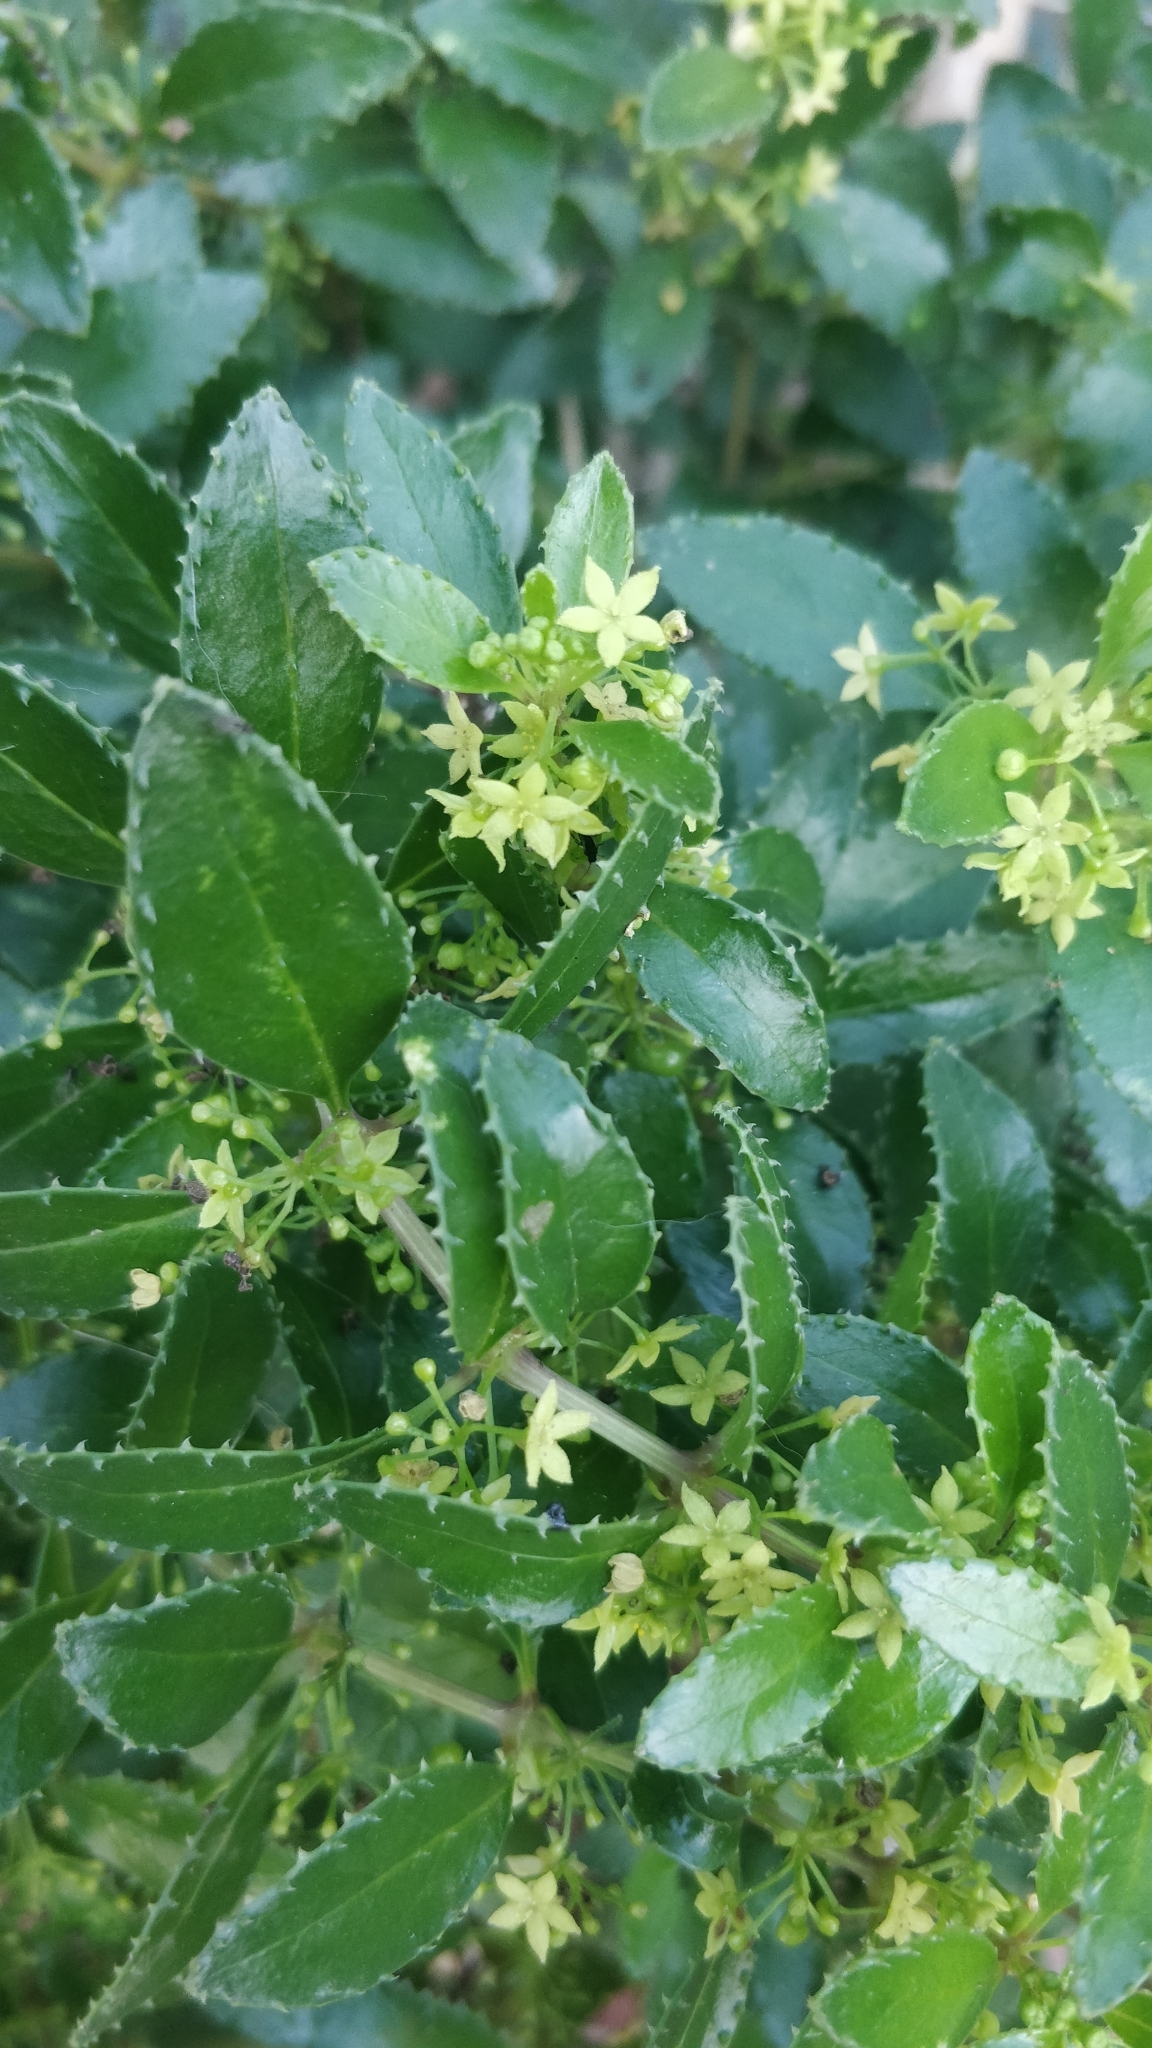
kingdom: Plantae
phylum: Tracheophyta
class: Magnoliopsida
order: Gentianales
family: Rubiaceae
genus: Rubia
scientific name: Rubia fruticosa
